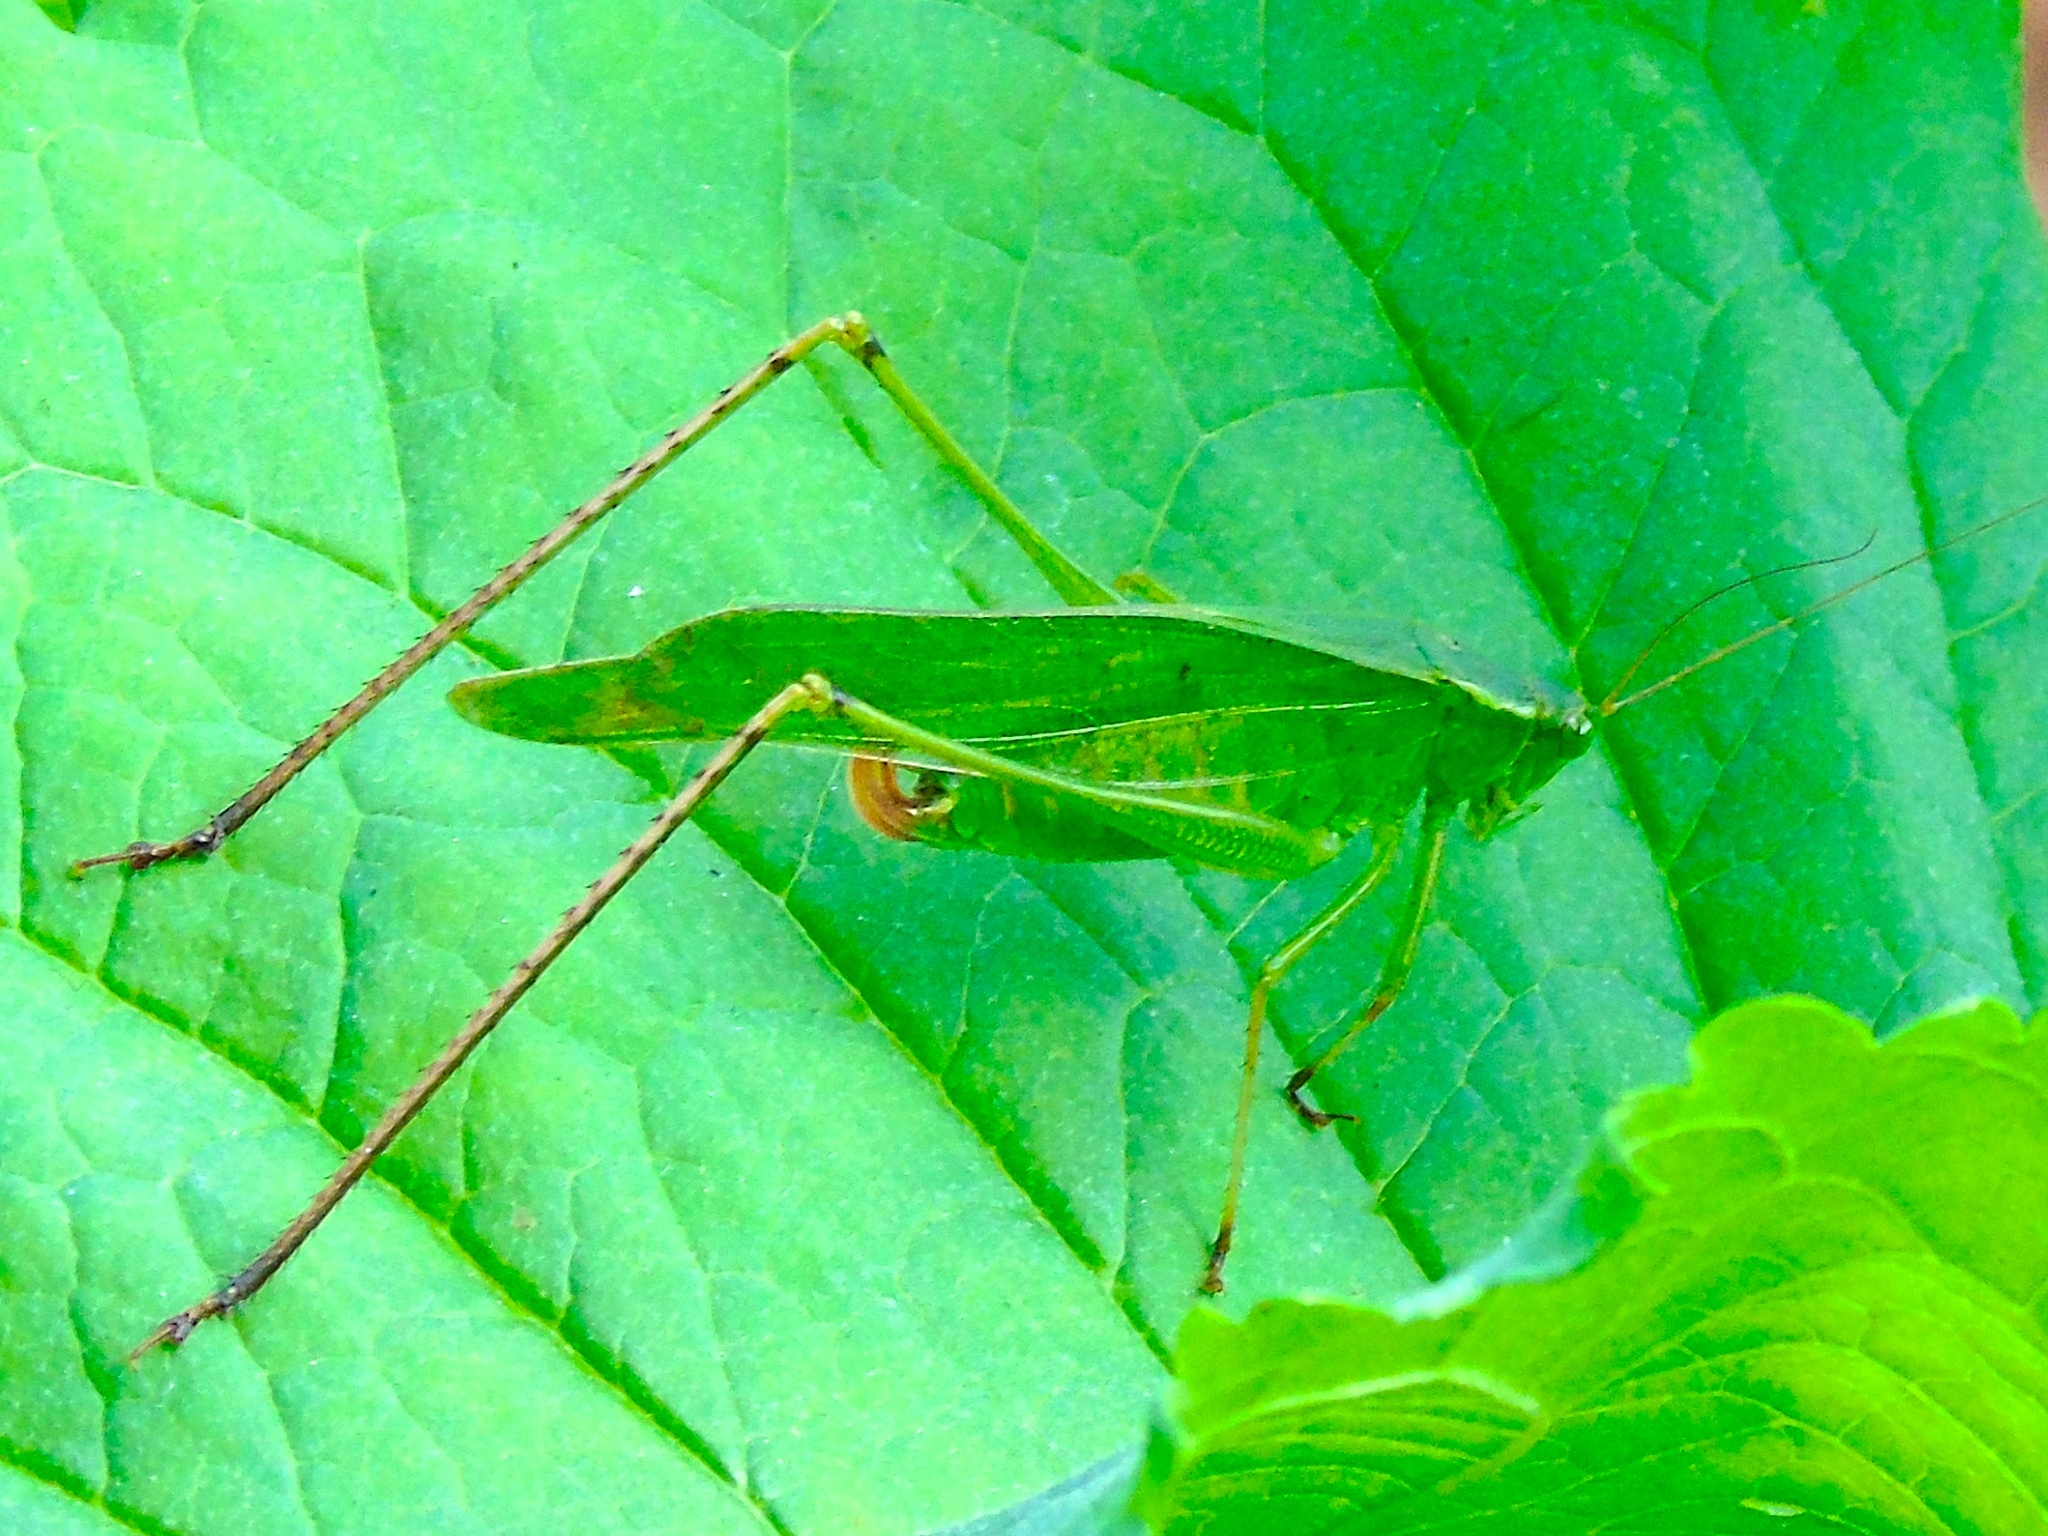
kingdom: Animalia
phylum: Arthropoda
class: Insecta
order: Orthoptera
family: Tettigoniidae
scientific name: Tettigoniidae
